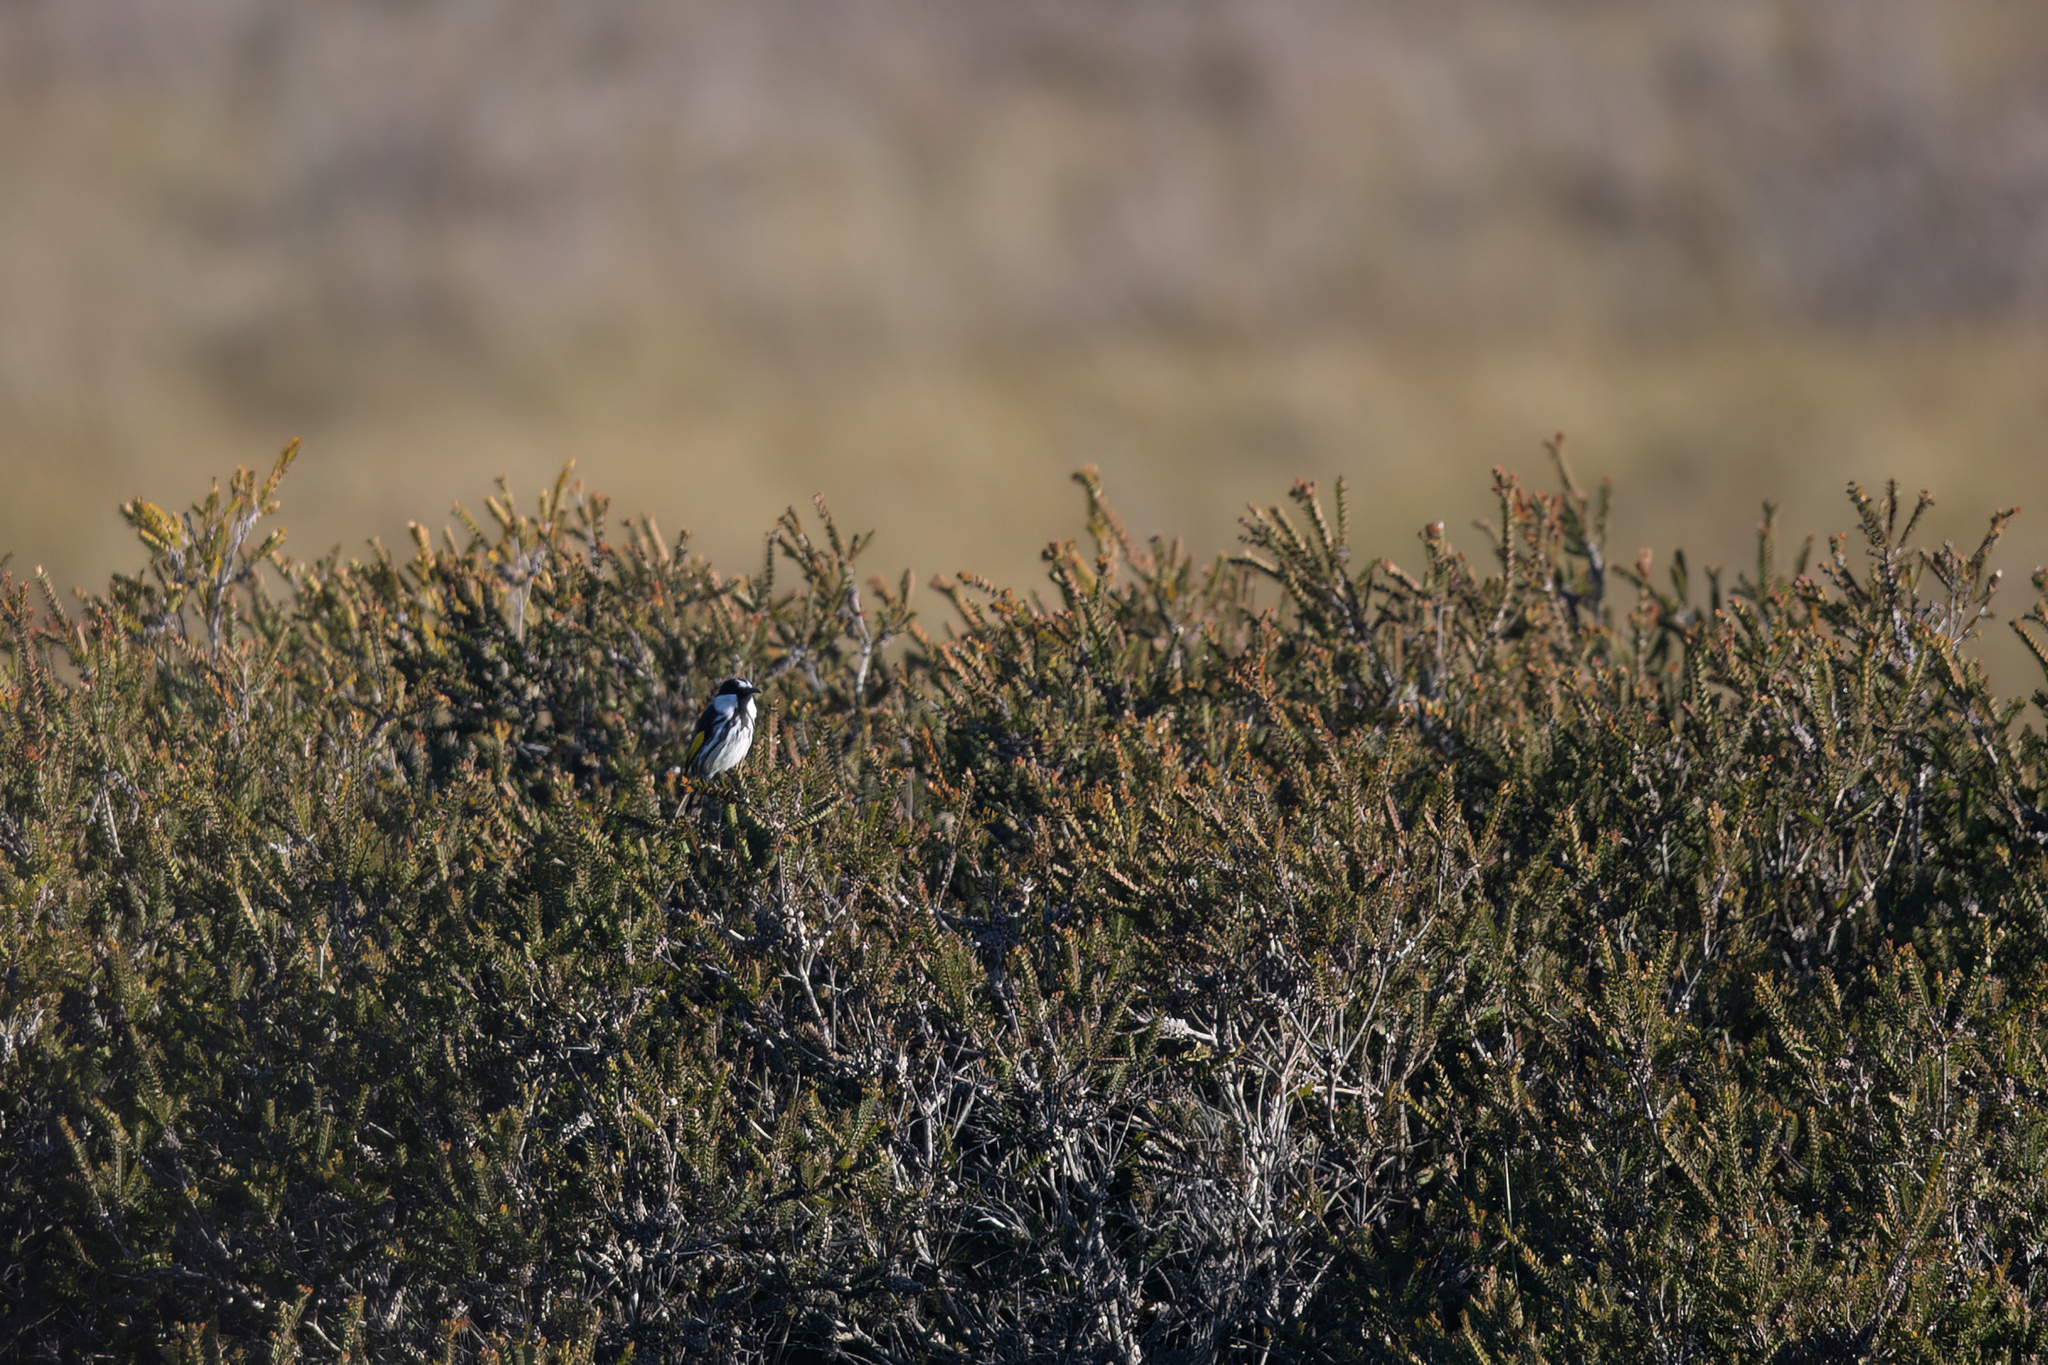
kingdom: Animalia
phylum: Chordata
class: Aves
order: Passeriformes
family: Meliphagidae
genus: Phylidonyris
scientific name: Phylidonyris niger
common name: White-cheeked honeyeater
